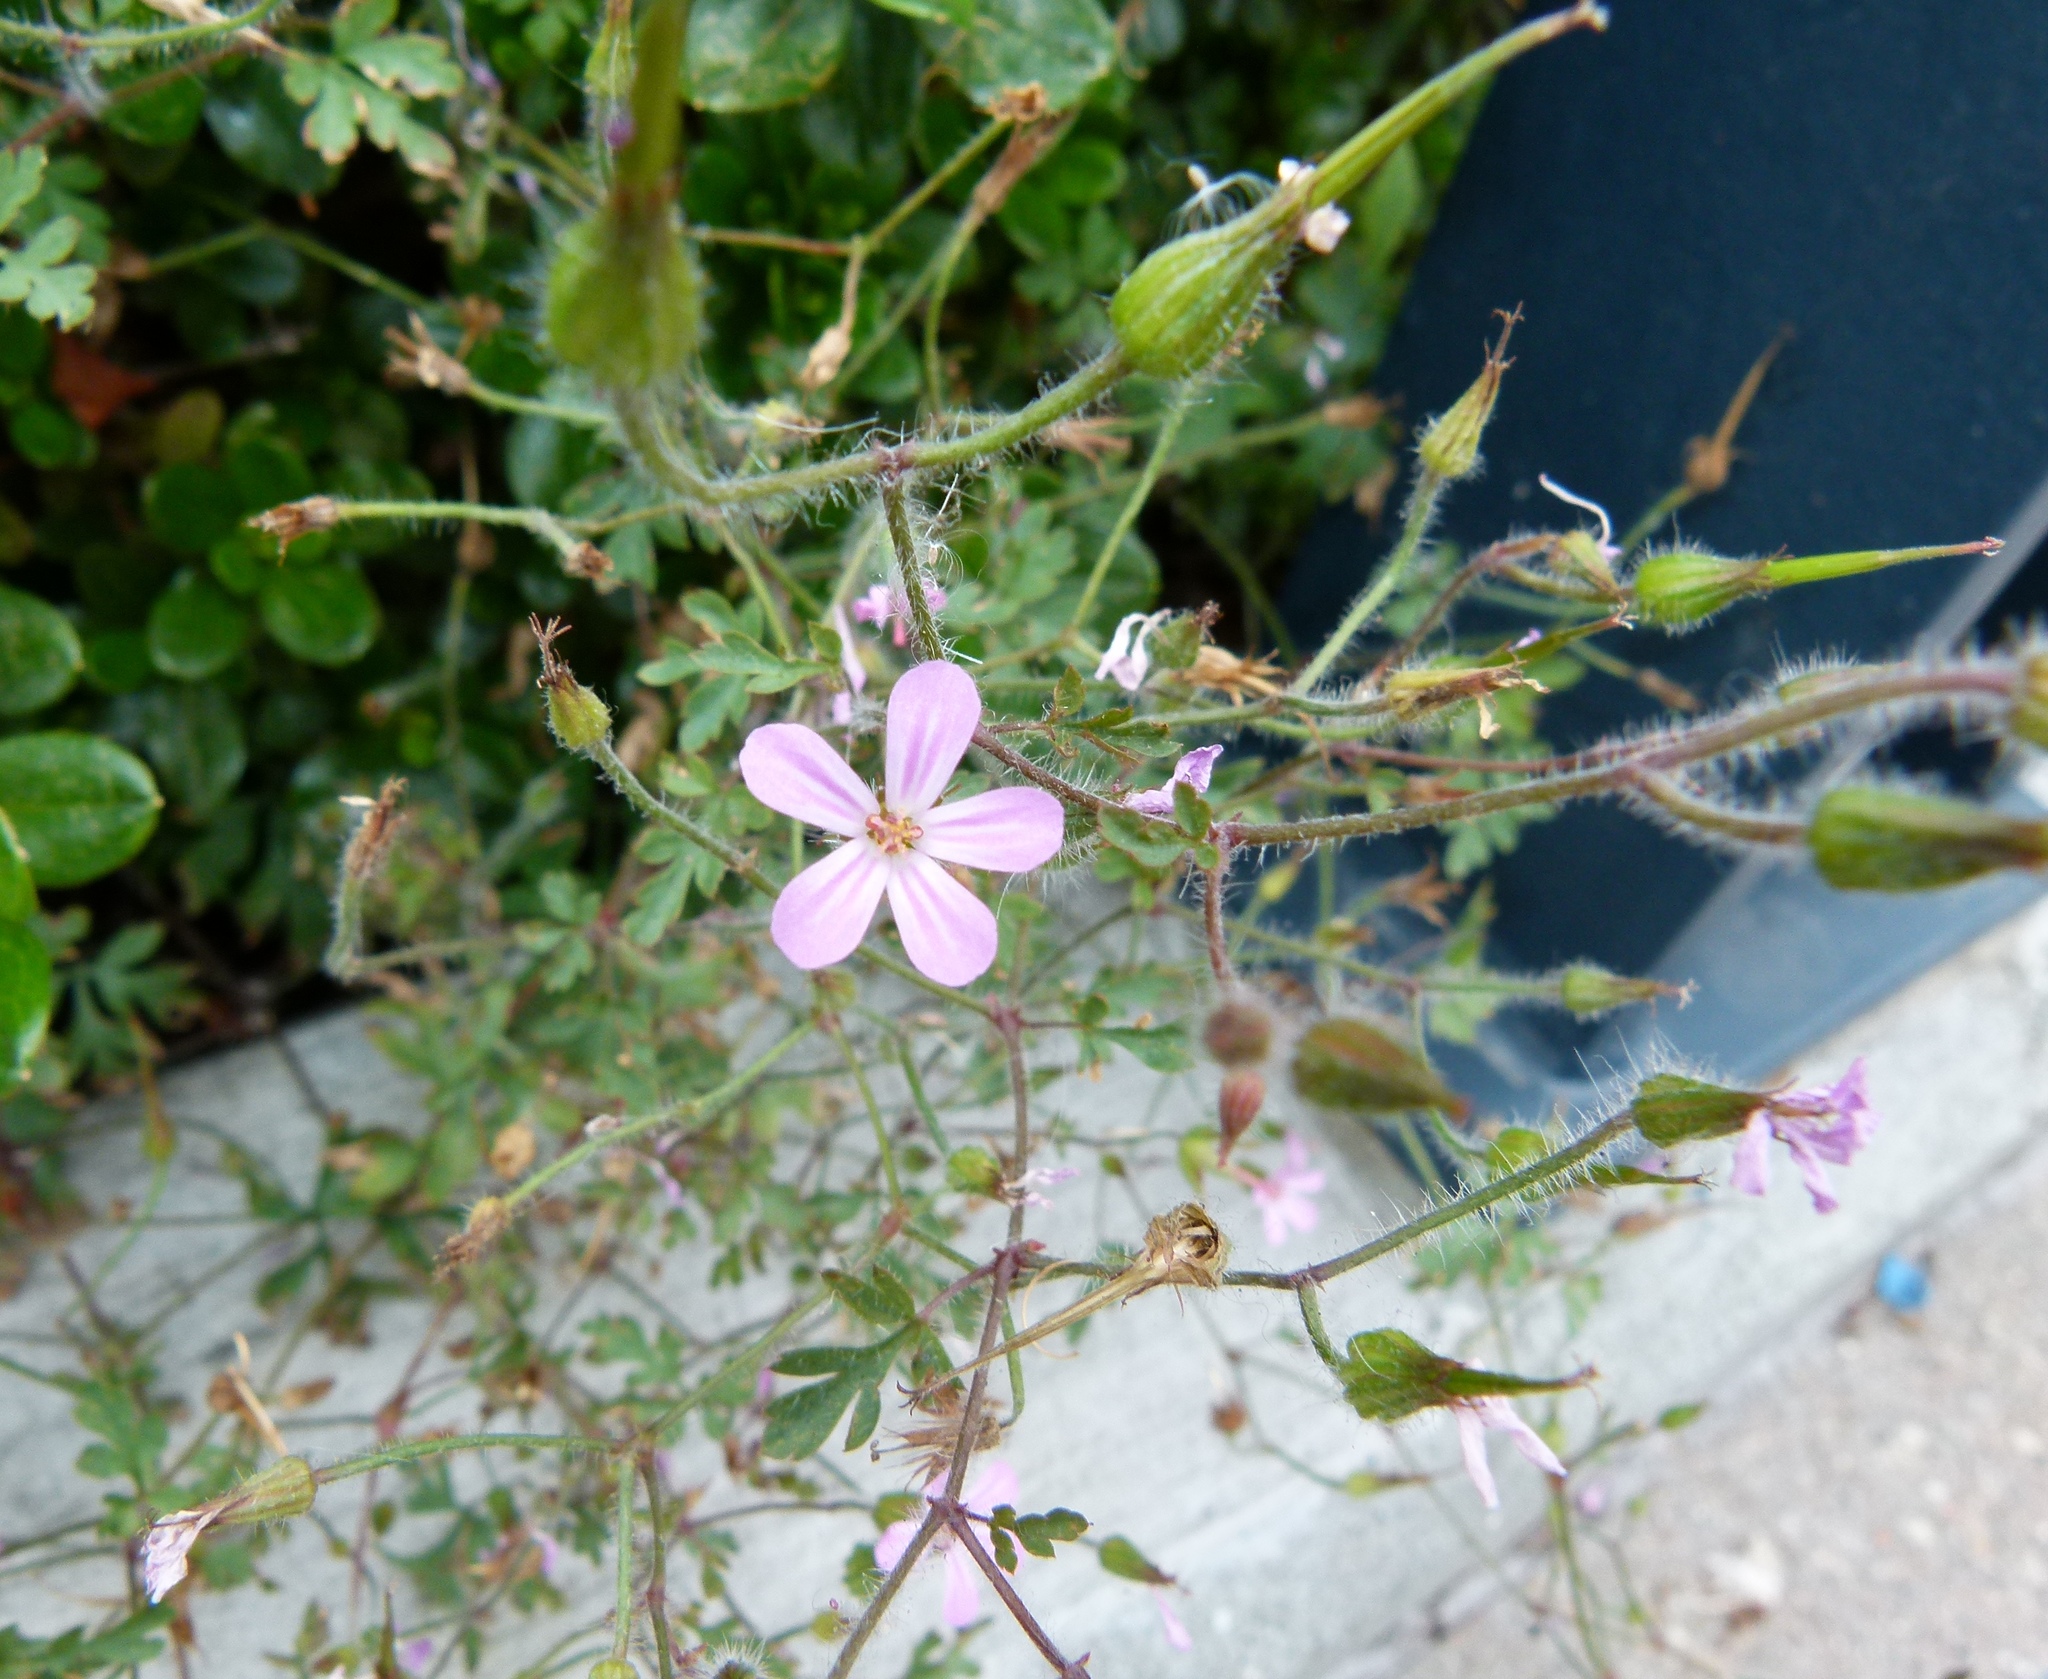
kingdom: Plantae
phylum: Tracheophyta
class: Magnoliopsida
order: Geraniales
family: Geraniaceae
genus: Geranium
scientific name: Geranium robertianum
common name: Herb-robert
